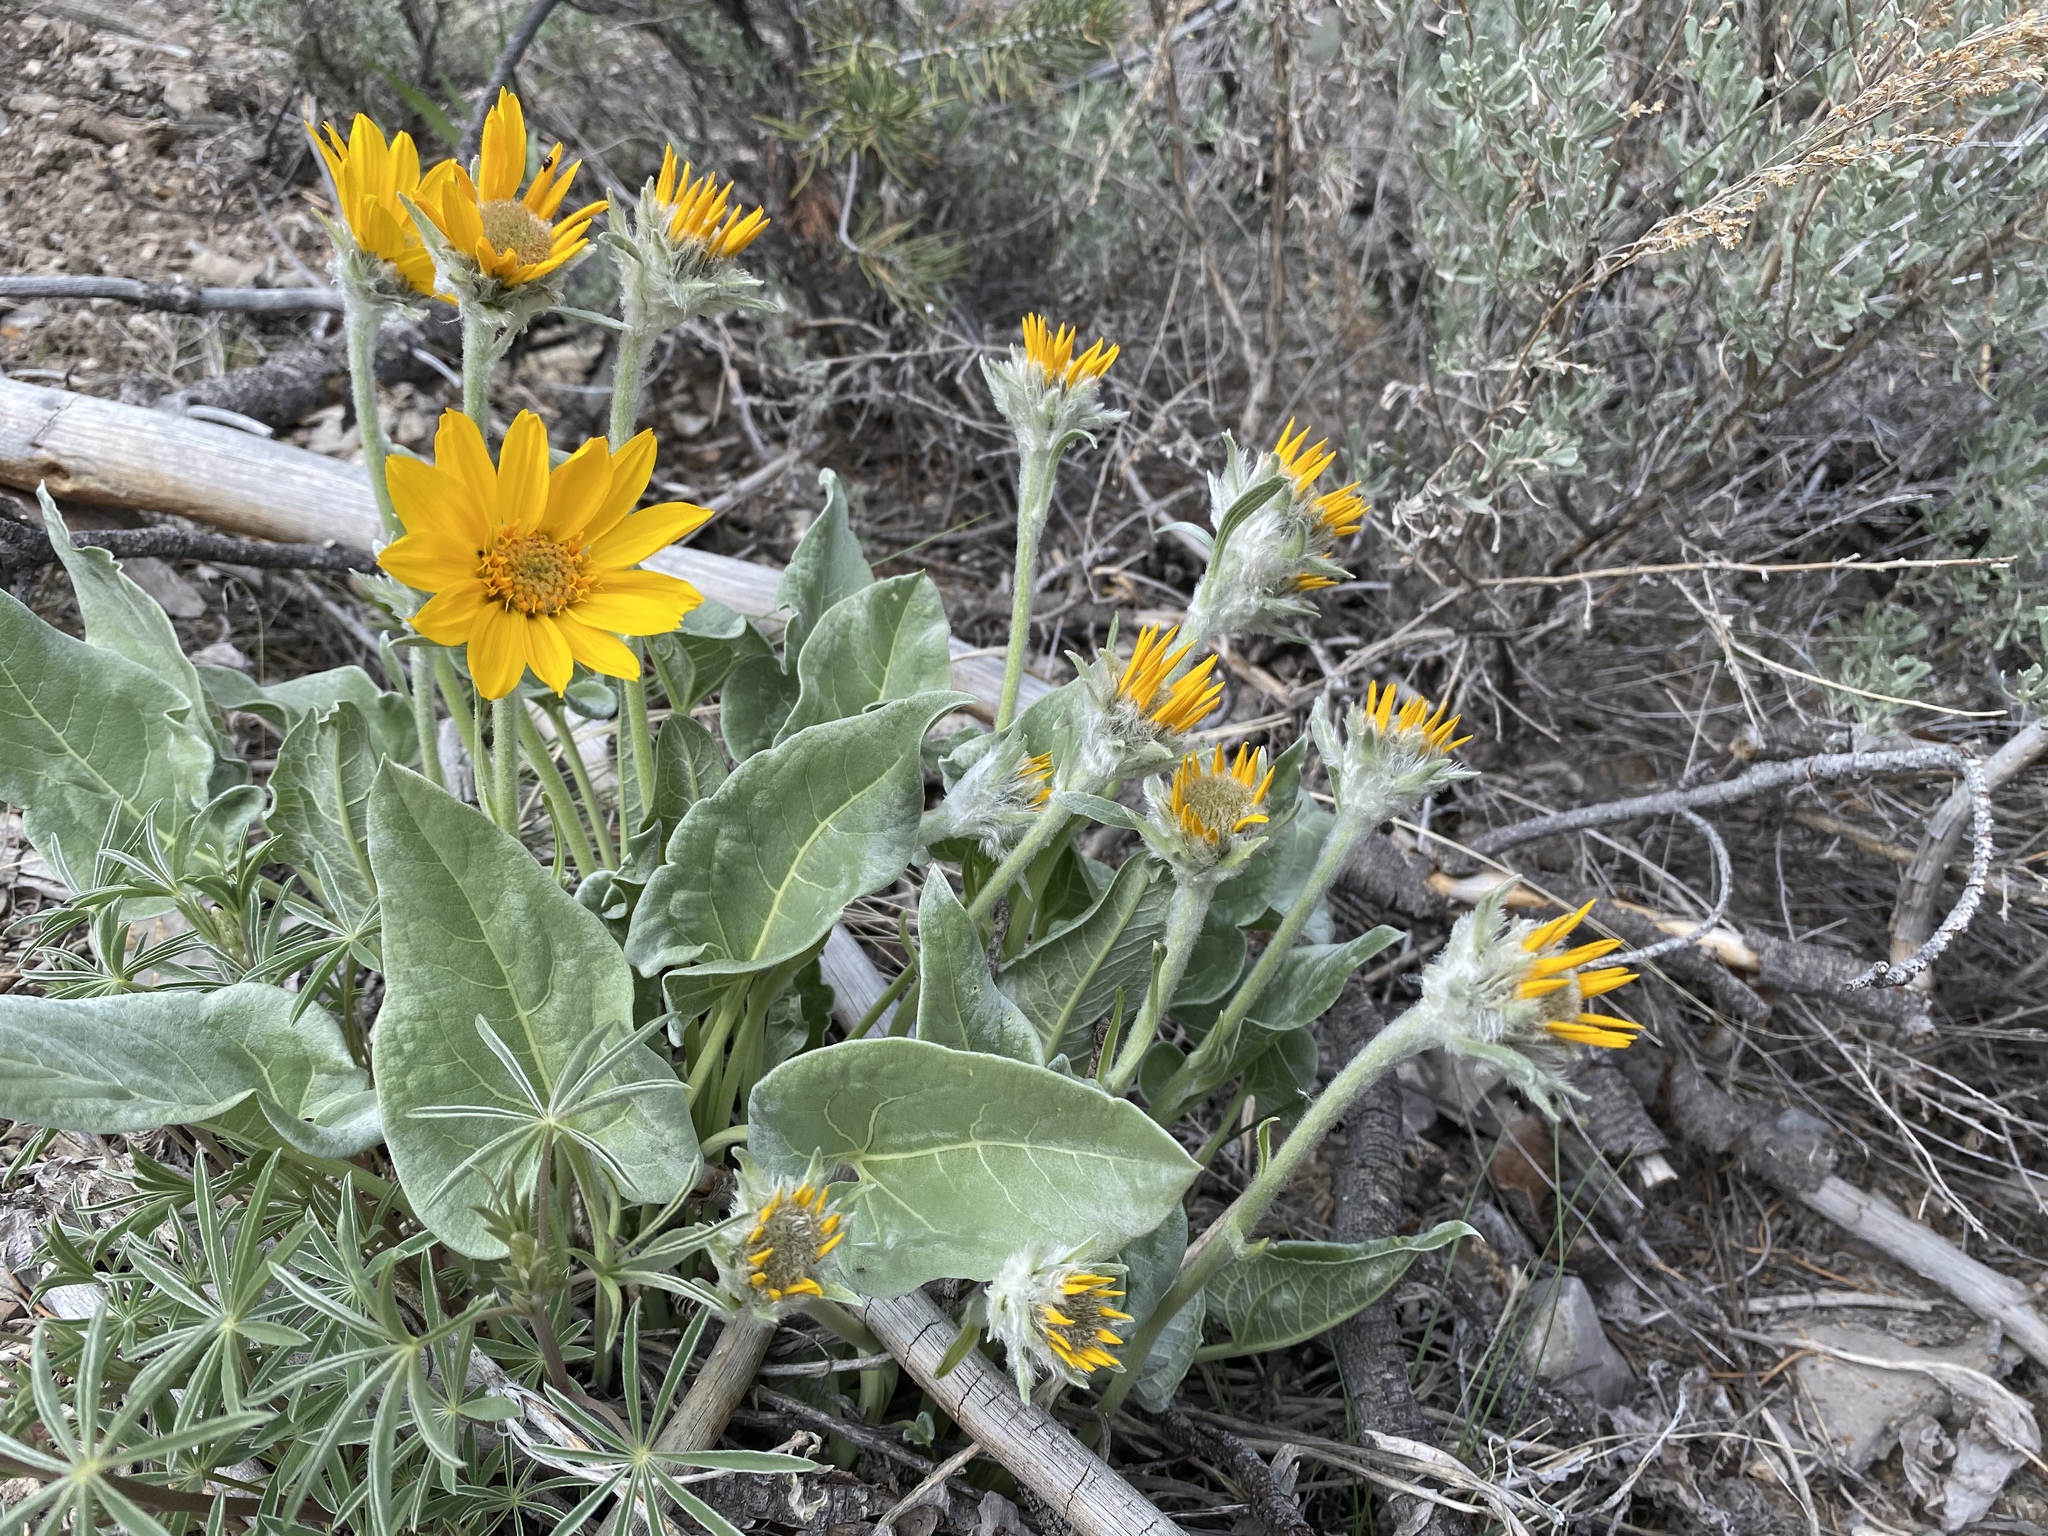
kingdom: Plantae
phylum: Tracheophyta
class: Magnoliopsida
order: Asterales
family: Asteraceae
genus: Wyethia
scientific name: Wyethia sagittata
